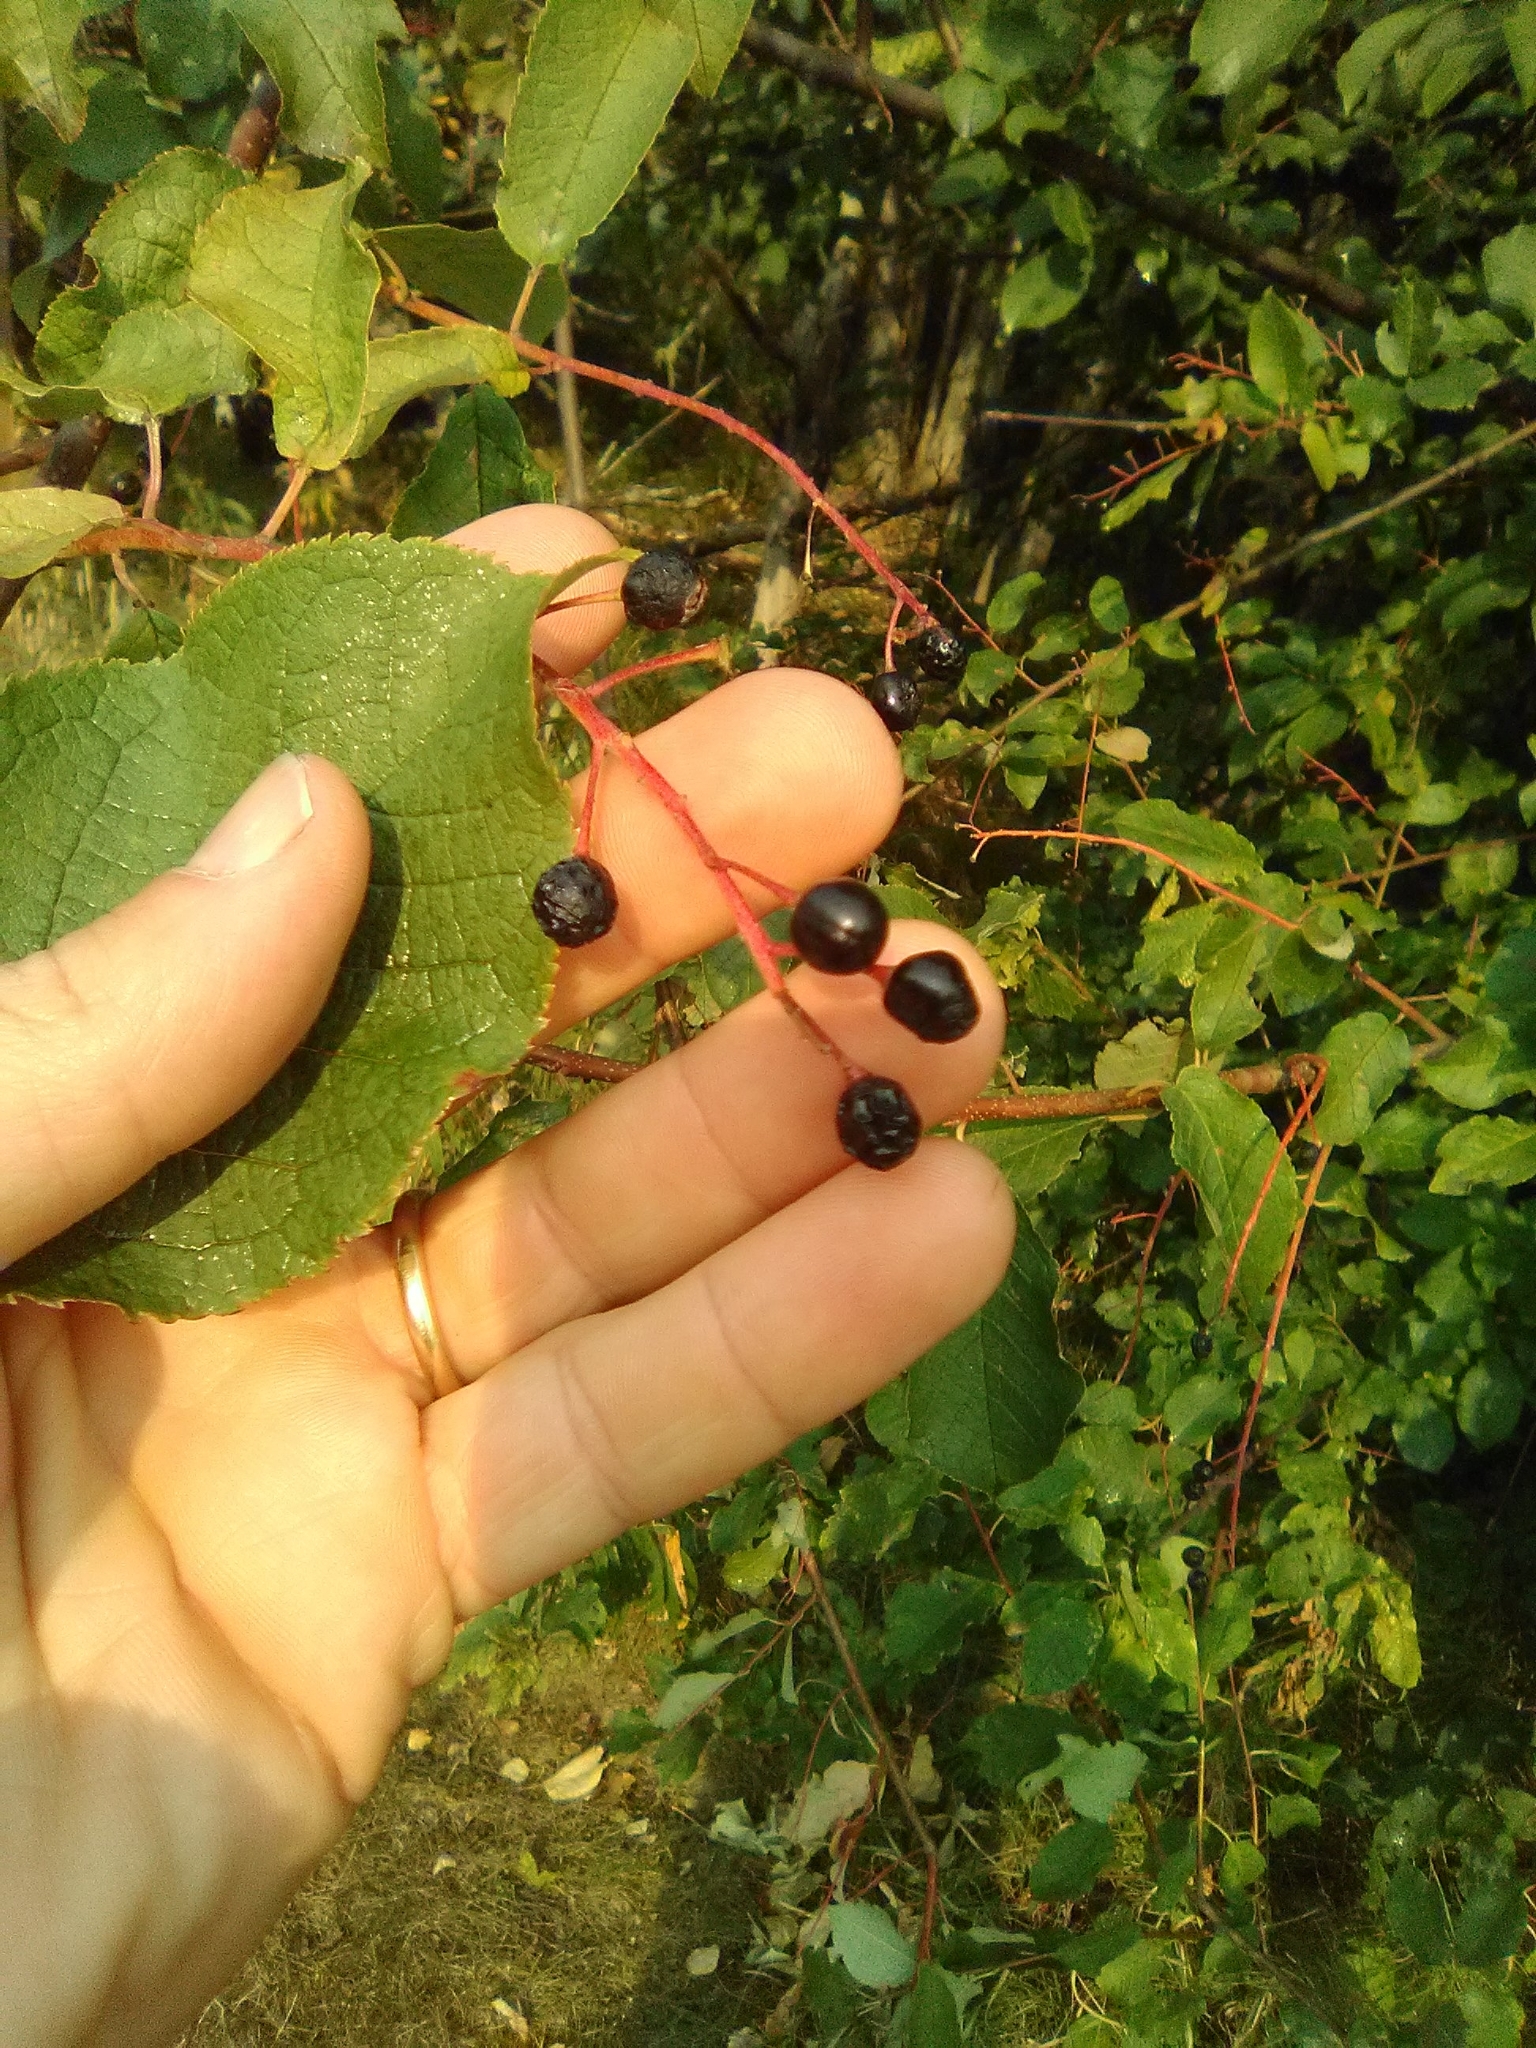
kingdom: Plantae
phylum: Tracheophyta
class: Magnoliopsida
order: Rosales
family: Rosaceae
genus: Prunus
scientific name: Prunus padus
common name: Bird cherry
